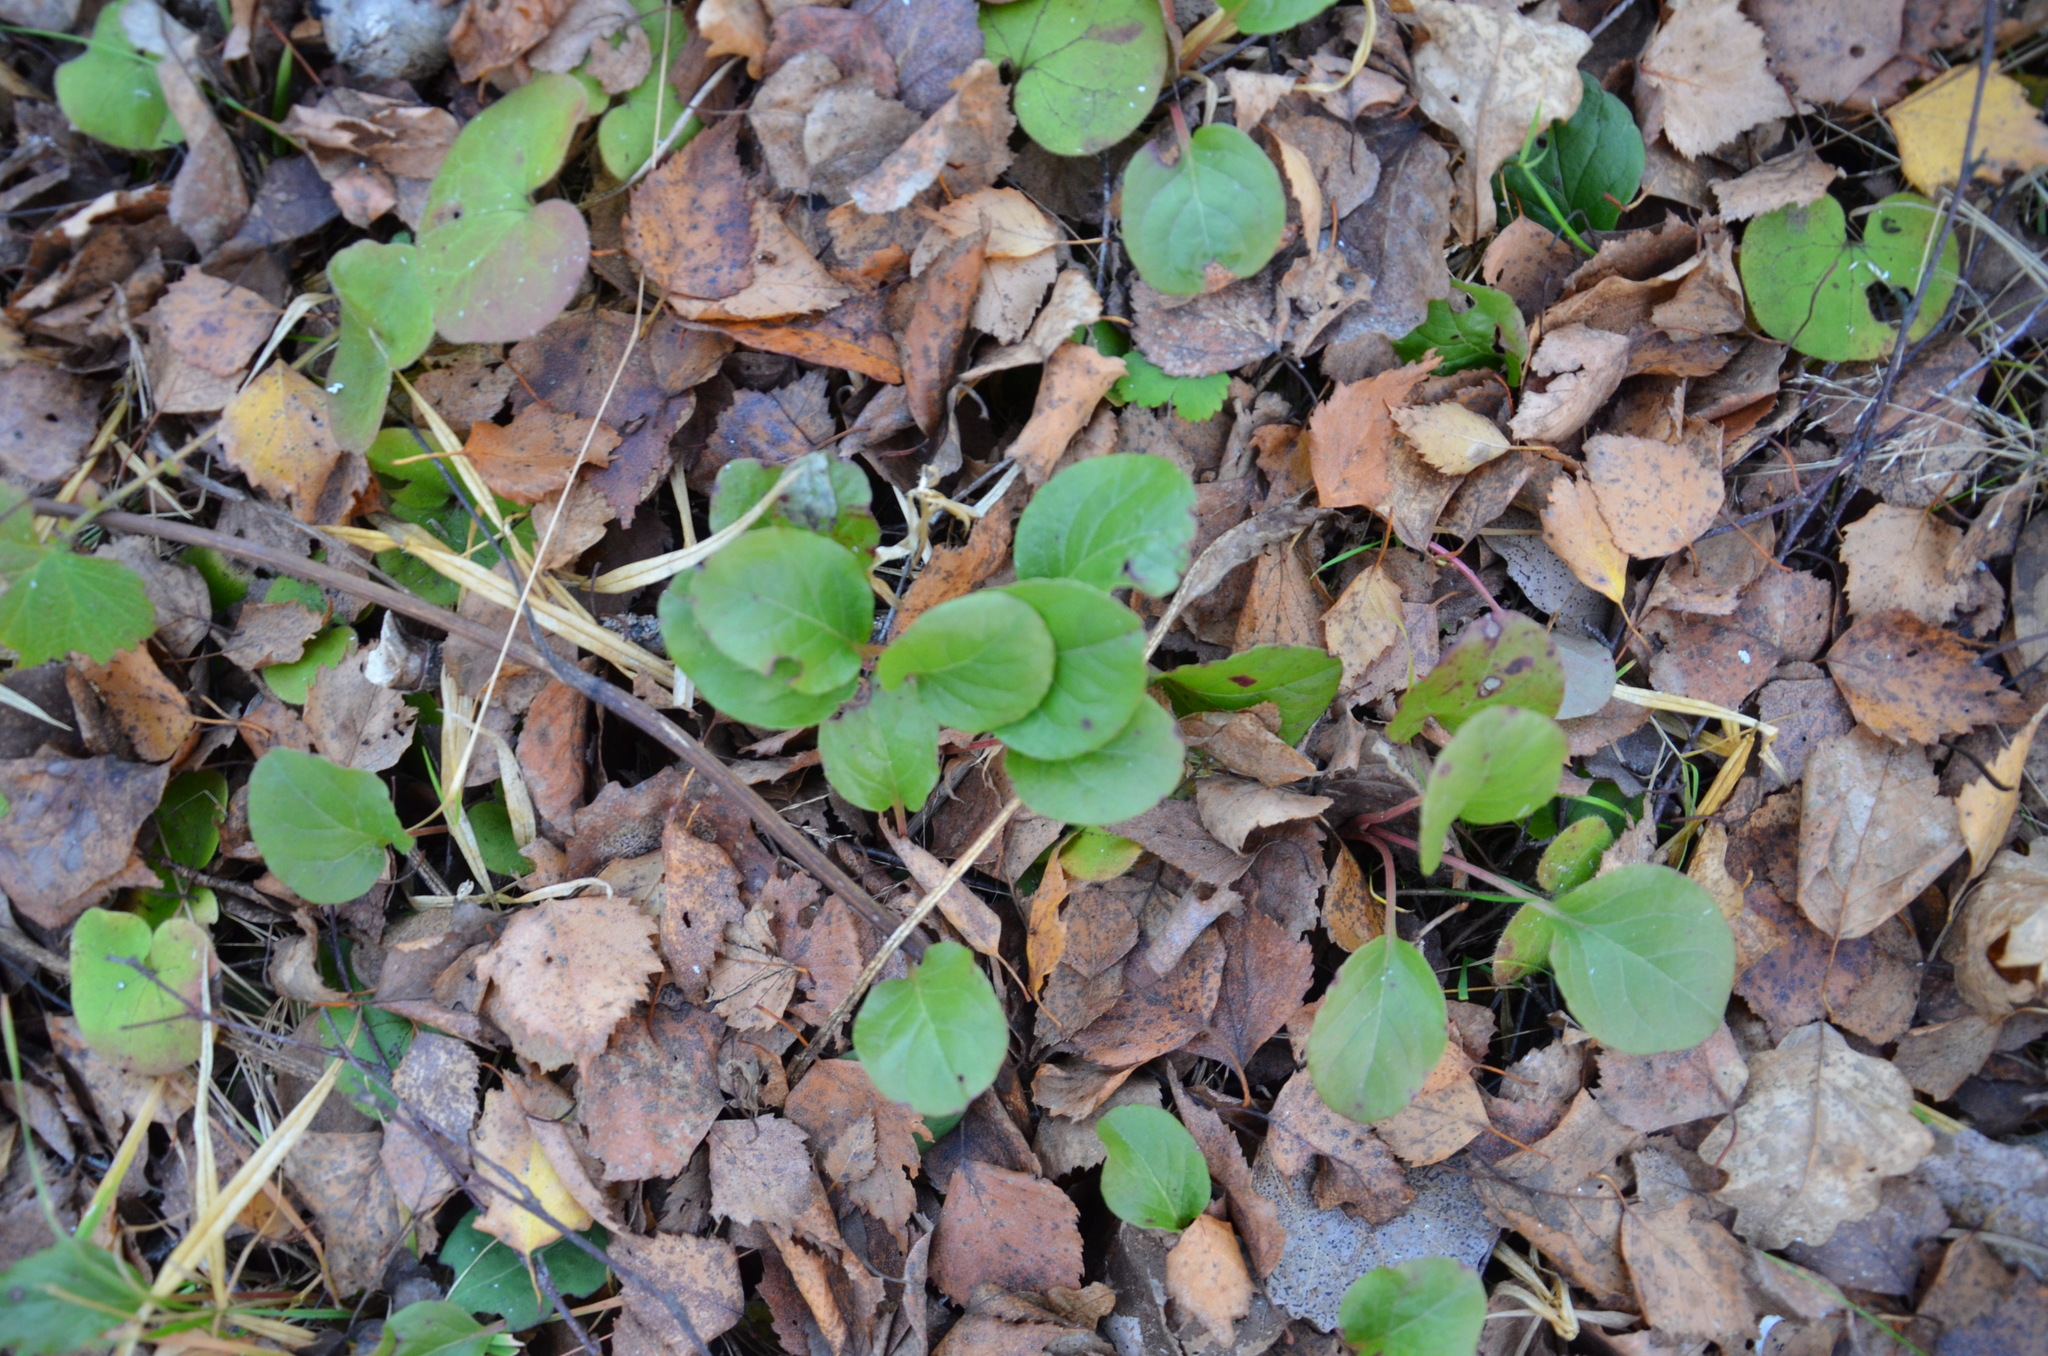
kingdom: Plantae
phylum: Tracheophyta
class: Magnoliopsida
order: Ericales
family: Ericaceae
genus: Pyrola
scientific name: Pyrola rotundifolia
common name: Round-leaved wintergreen
